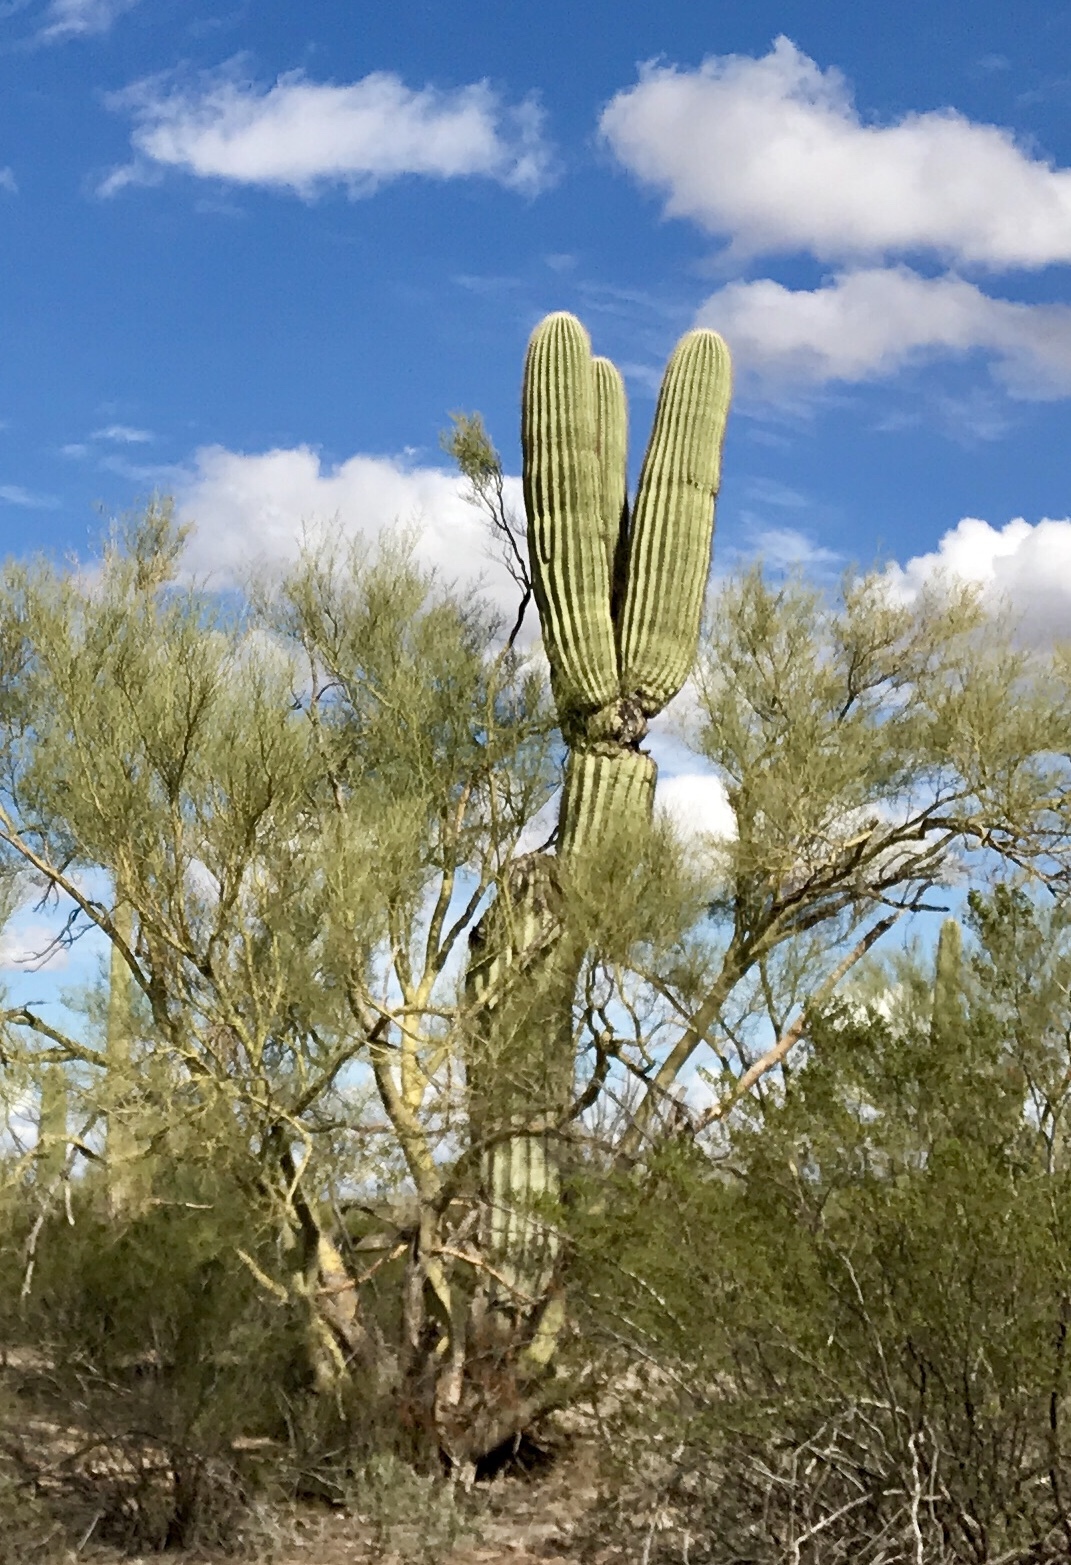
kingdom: Plantae
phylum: Tracheophyta
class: Magnoliopsida
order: Caryophyllales
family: Cactaceae
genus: Carnegiea
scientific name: Carnegiea gigantea
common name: Saguaro
